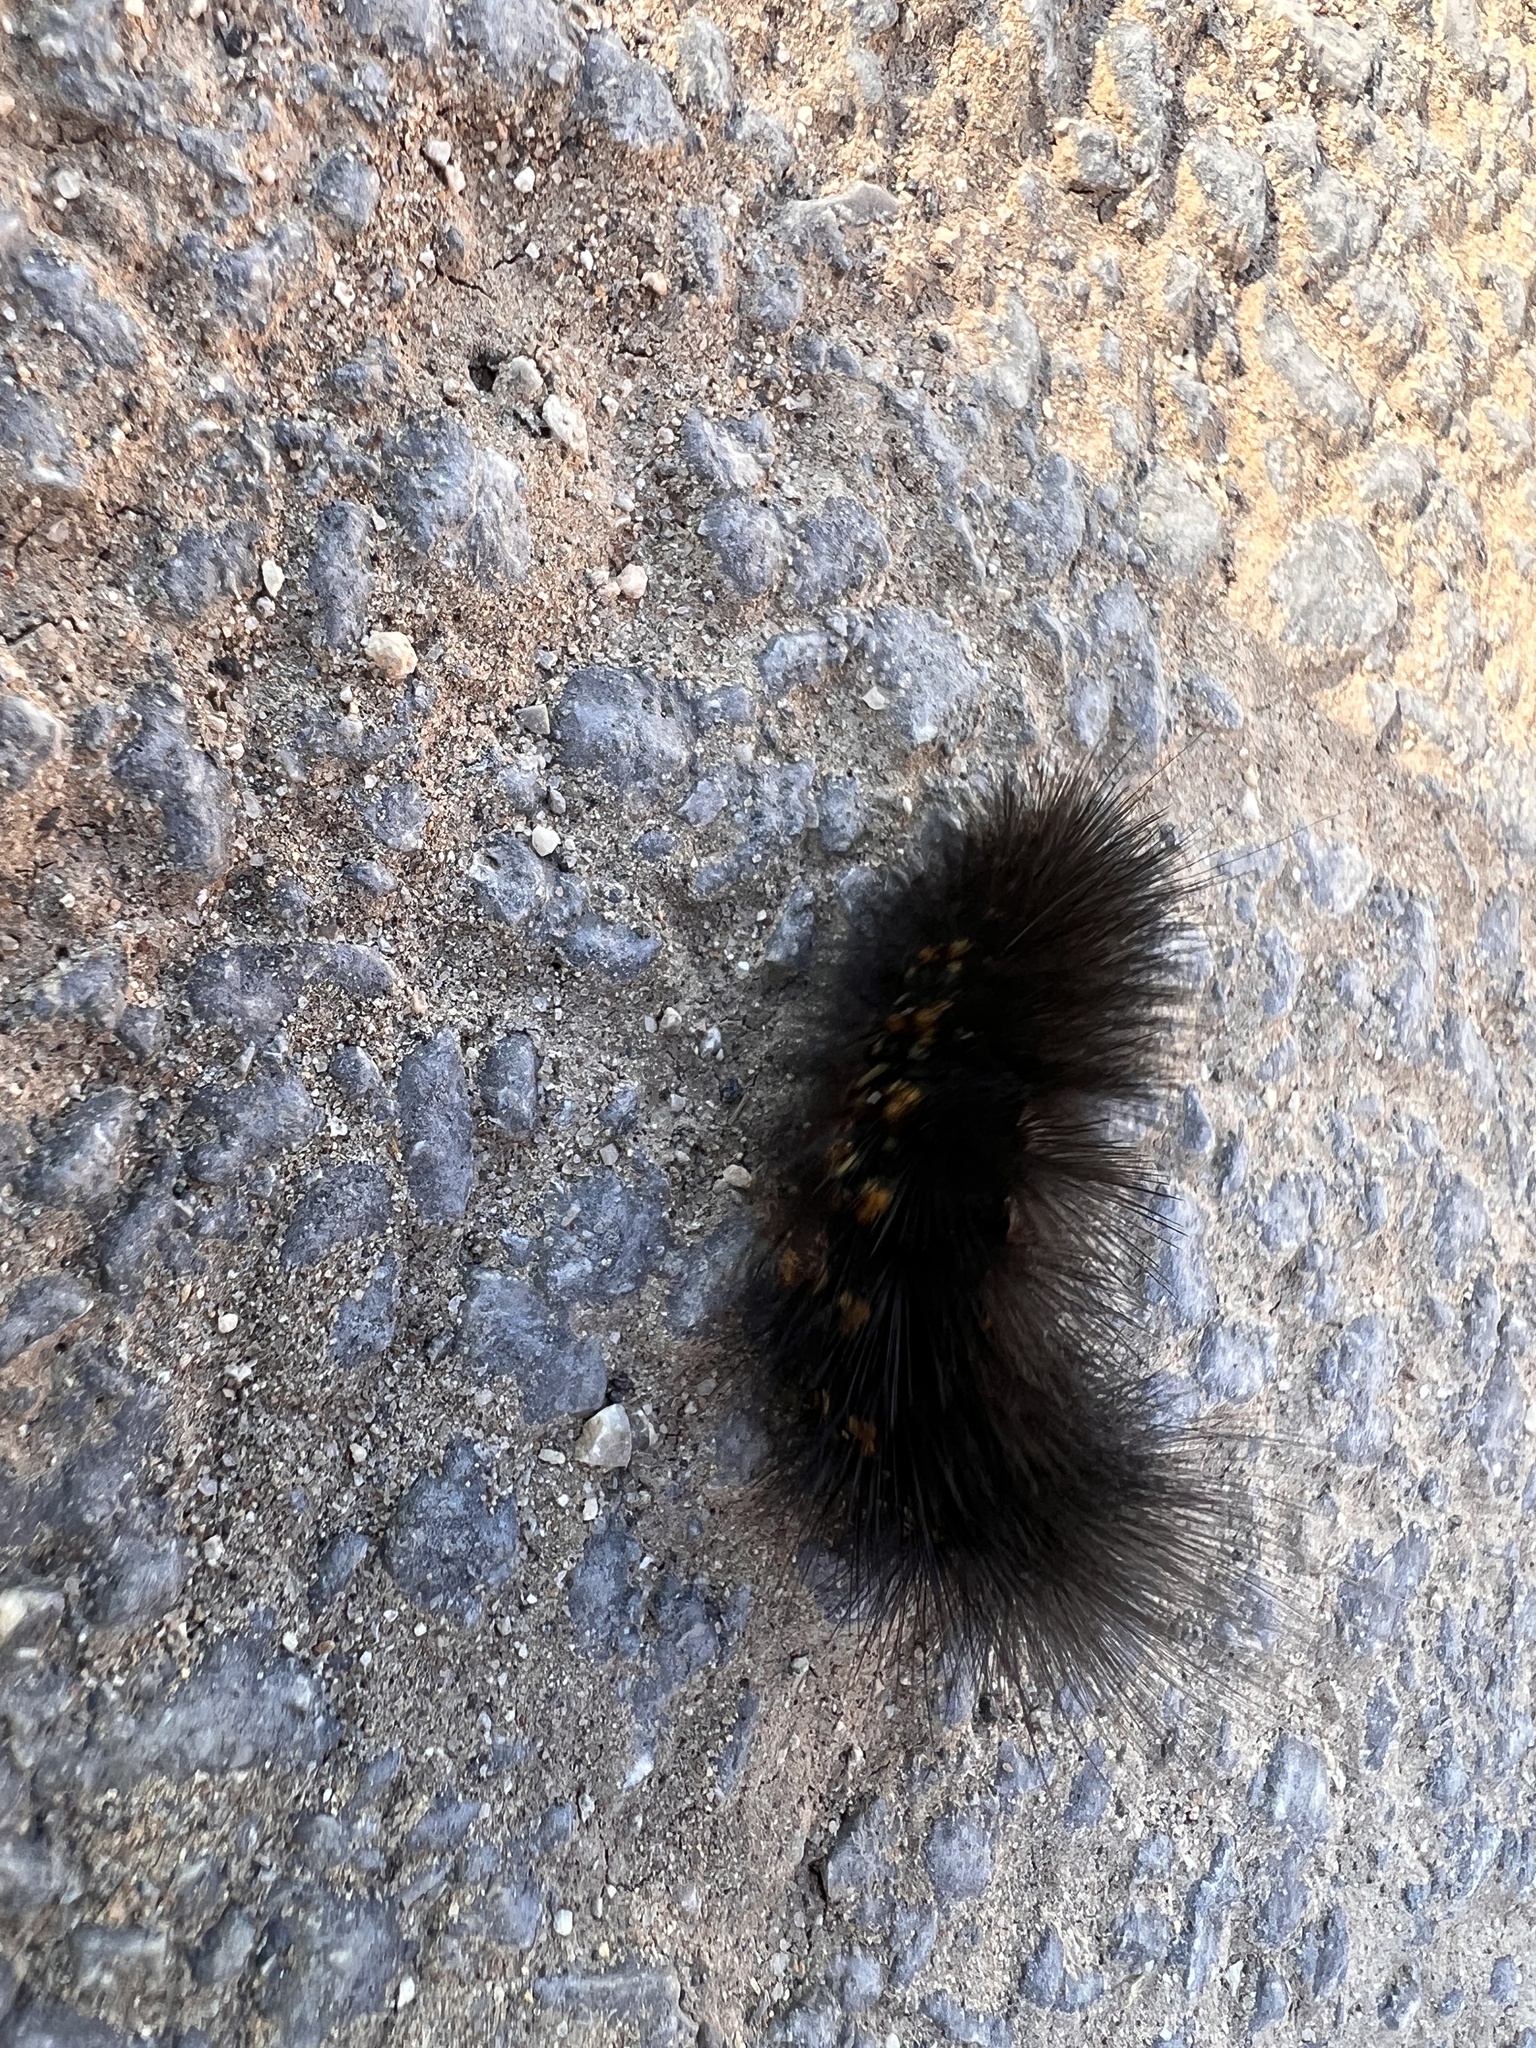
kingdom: Animalia
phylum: Arthropoda
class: Insecta
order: Lepidoptera
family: Erebidae
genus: Estigmene
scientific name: Estigmene acrea
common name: Salt marsh moth
